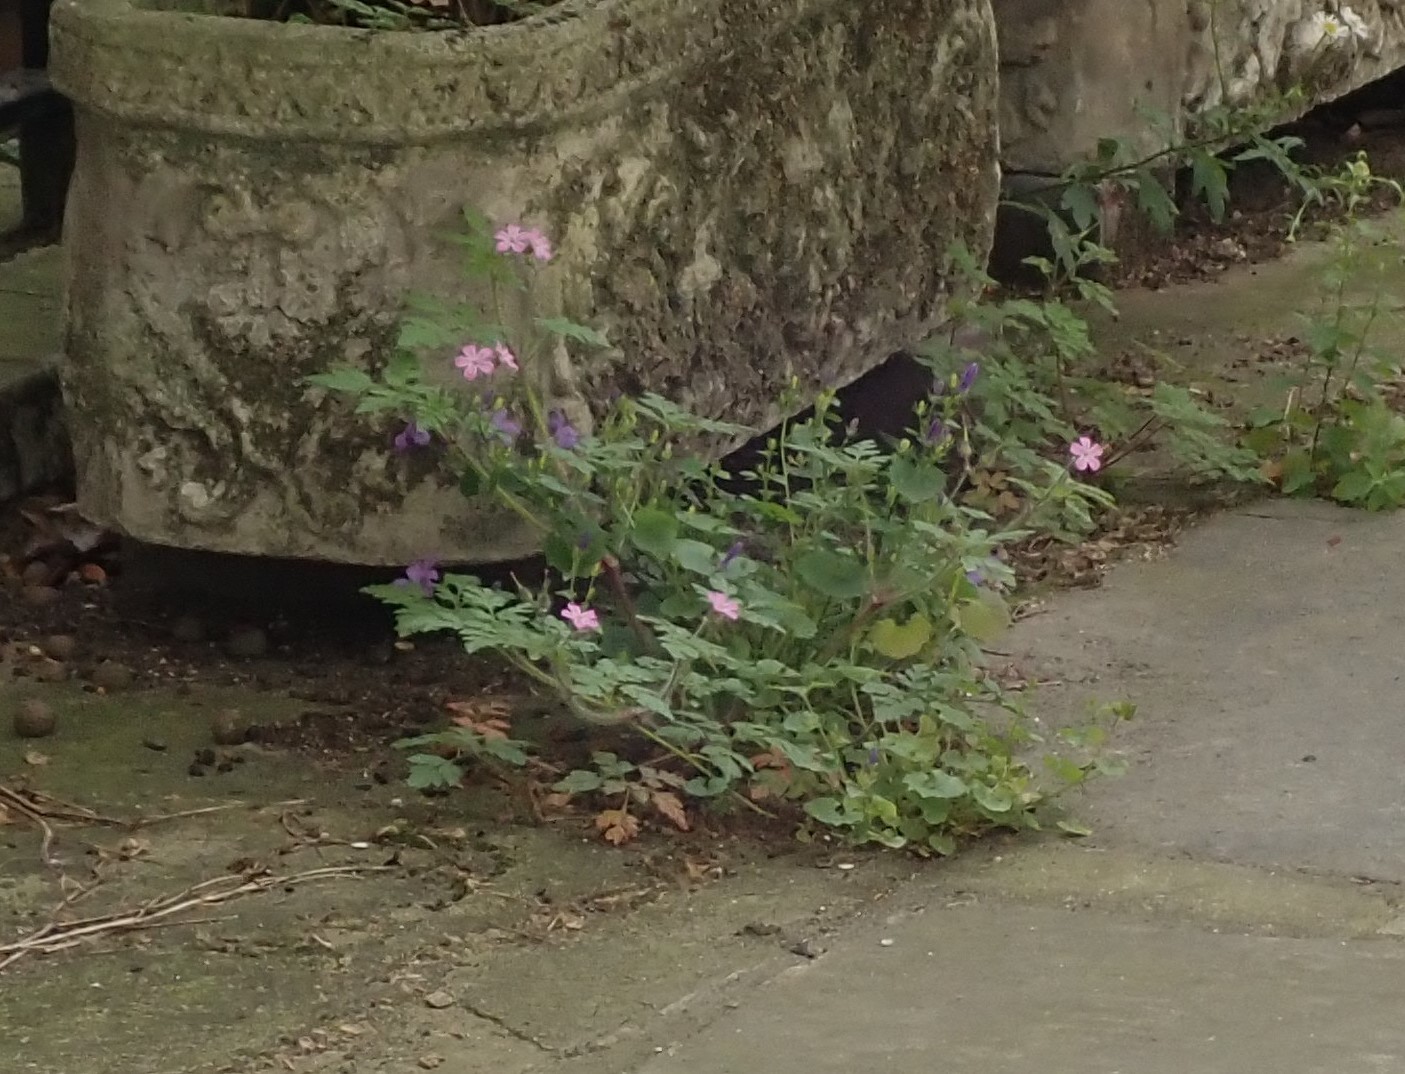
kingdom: Plantae
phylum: Tracheophyta
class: Magnoliopsida
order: Geraniales
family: Geraniaceae
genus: Geranium
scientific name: Geranium robertianum
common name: Herb-robert
